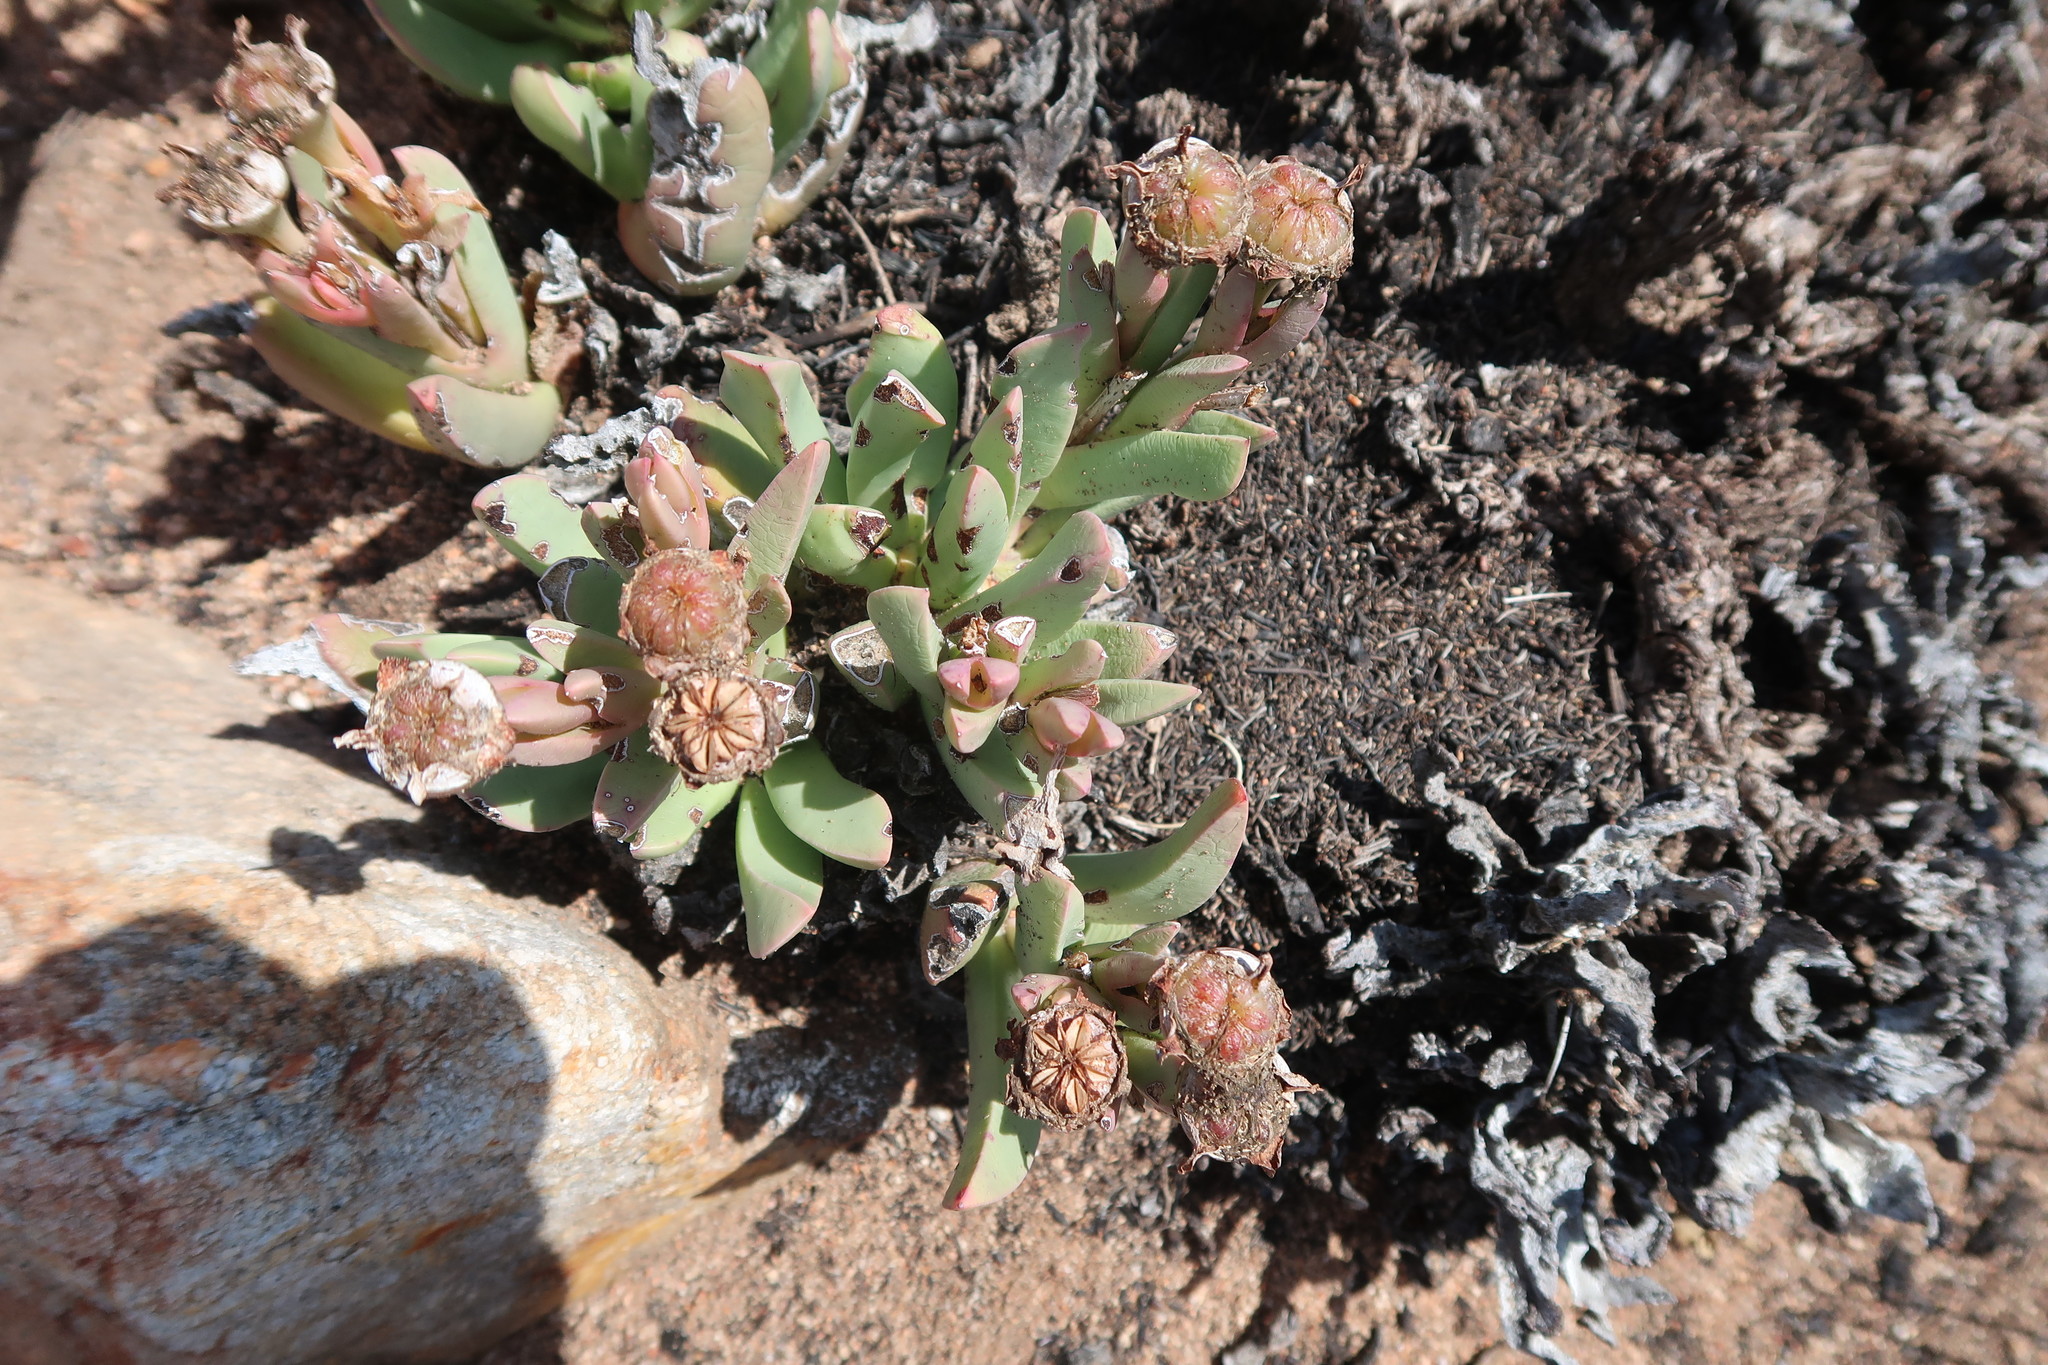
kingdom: Plantae
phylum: Tracheophyta
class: Magnoliopsida
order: Caryophyllales
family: Aizoaceae
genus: Machairophyllum
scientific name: Machairophyllum albidum
